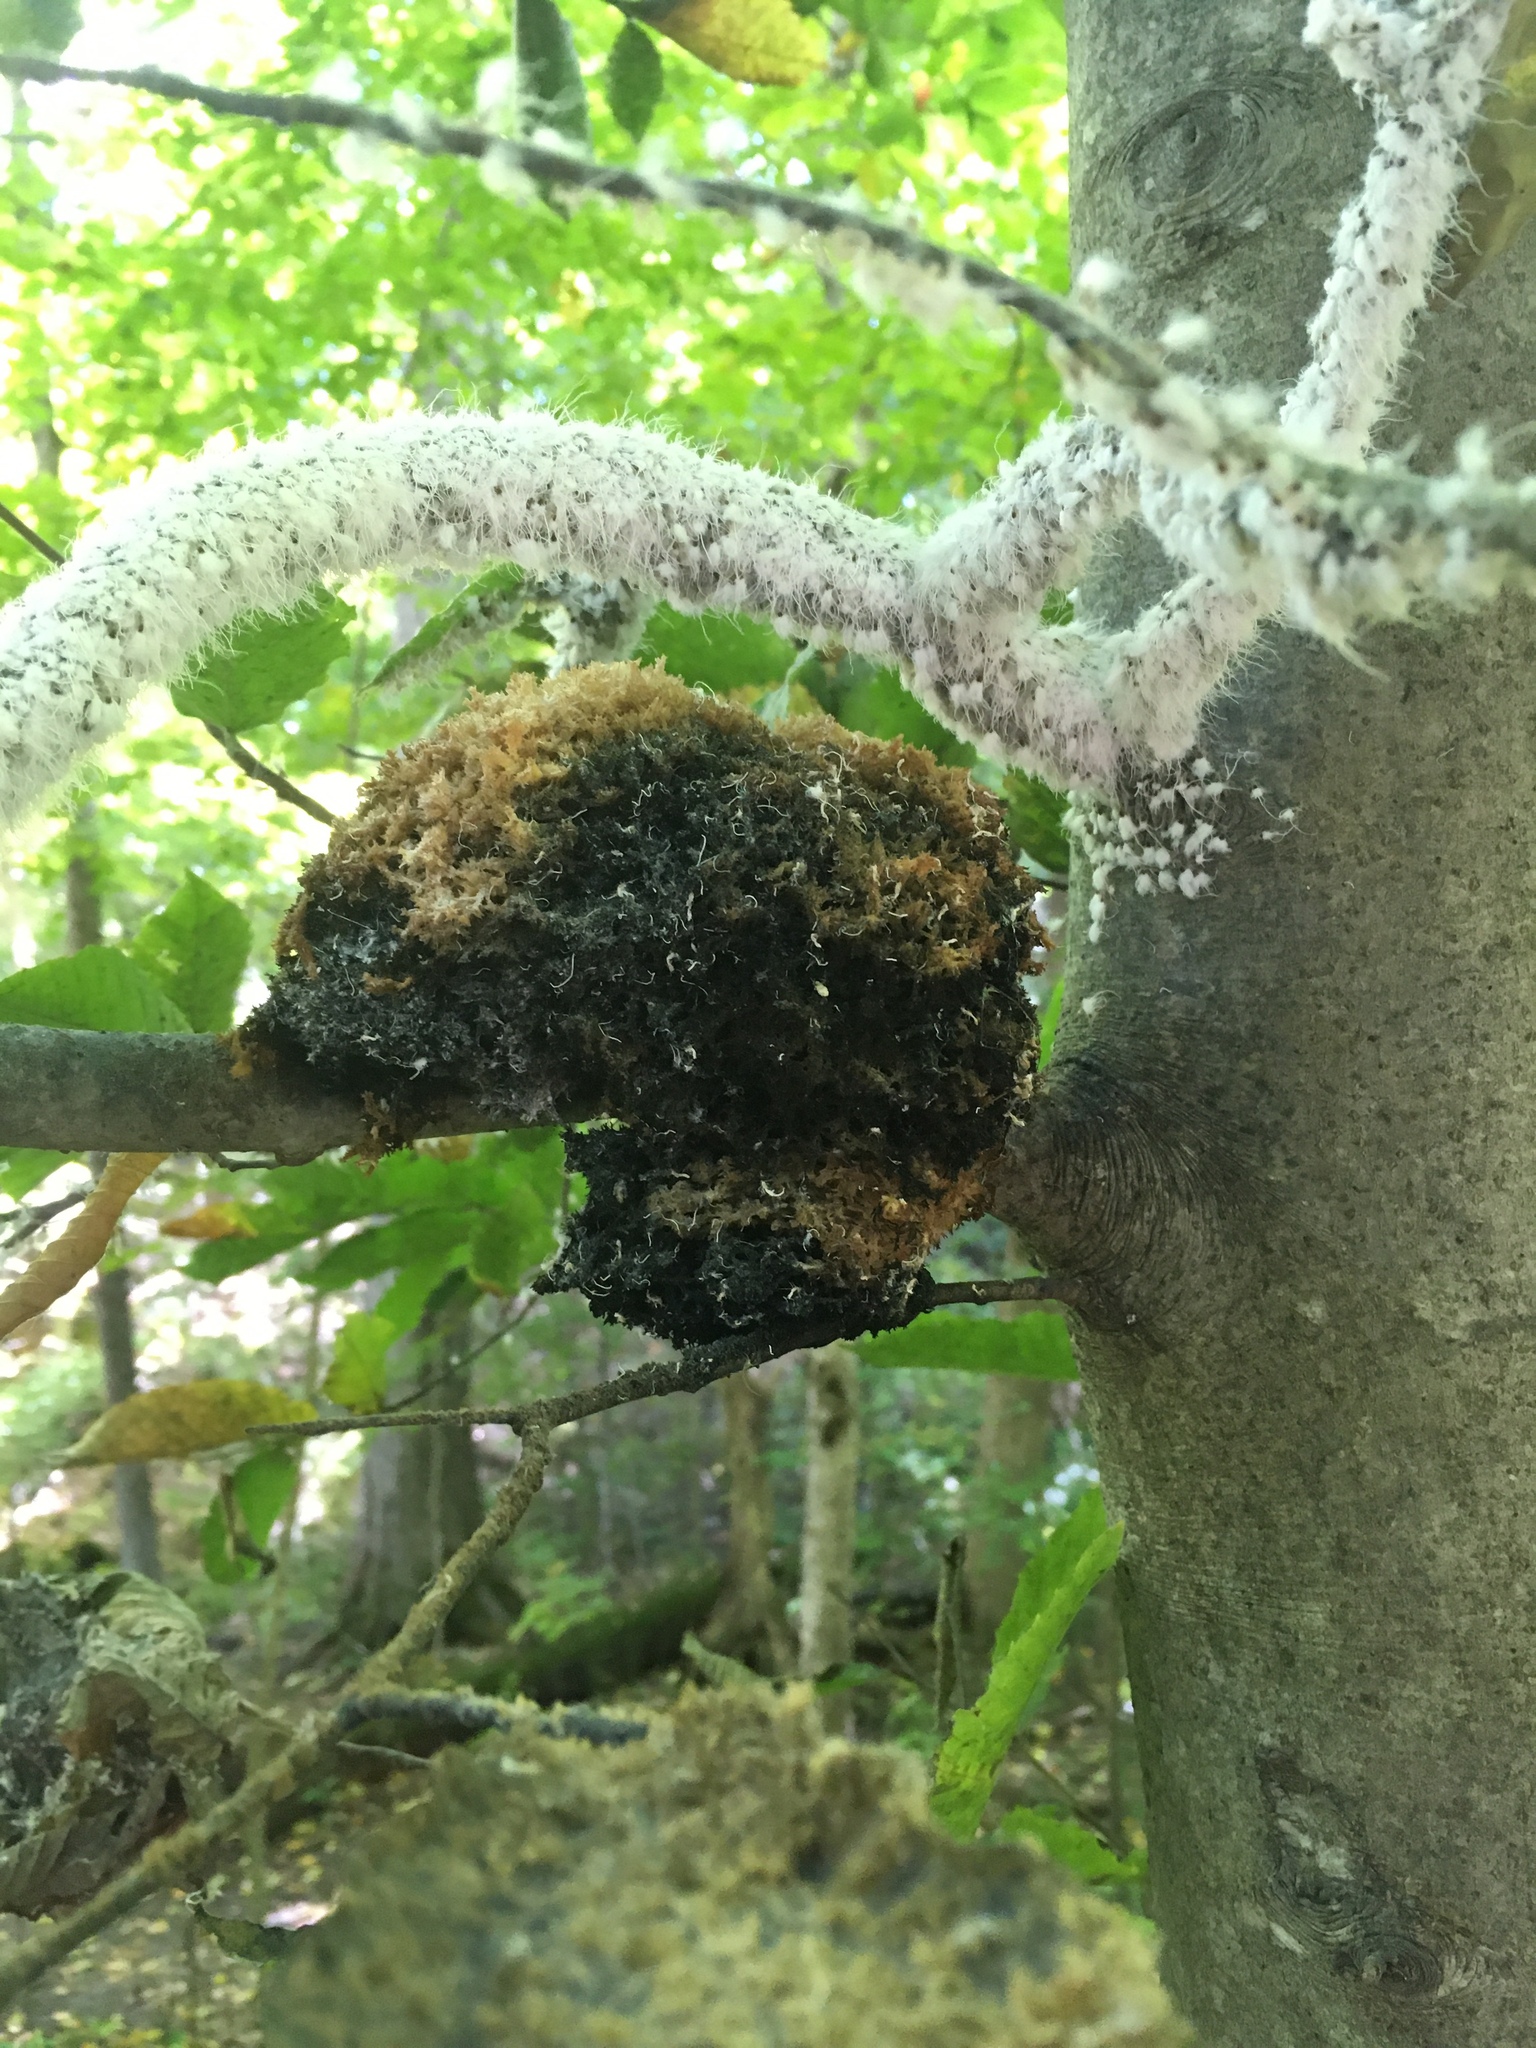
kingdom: Fungi
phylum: Ascomycota
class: Dothideomycetes
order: Capnodiales
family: Capnodiaceae
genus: Scorias
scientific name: Scorias spongiosa
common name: Black sooty mold
